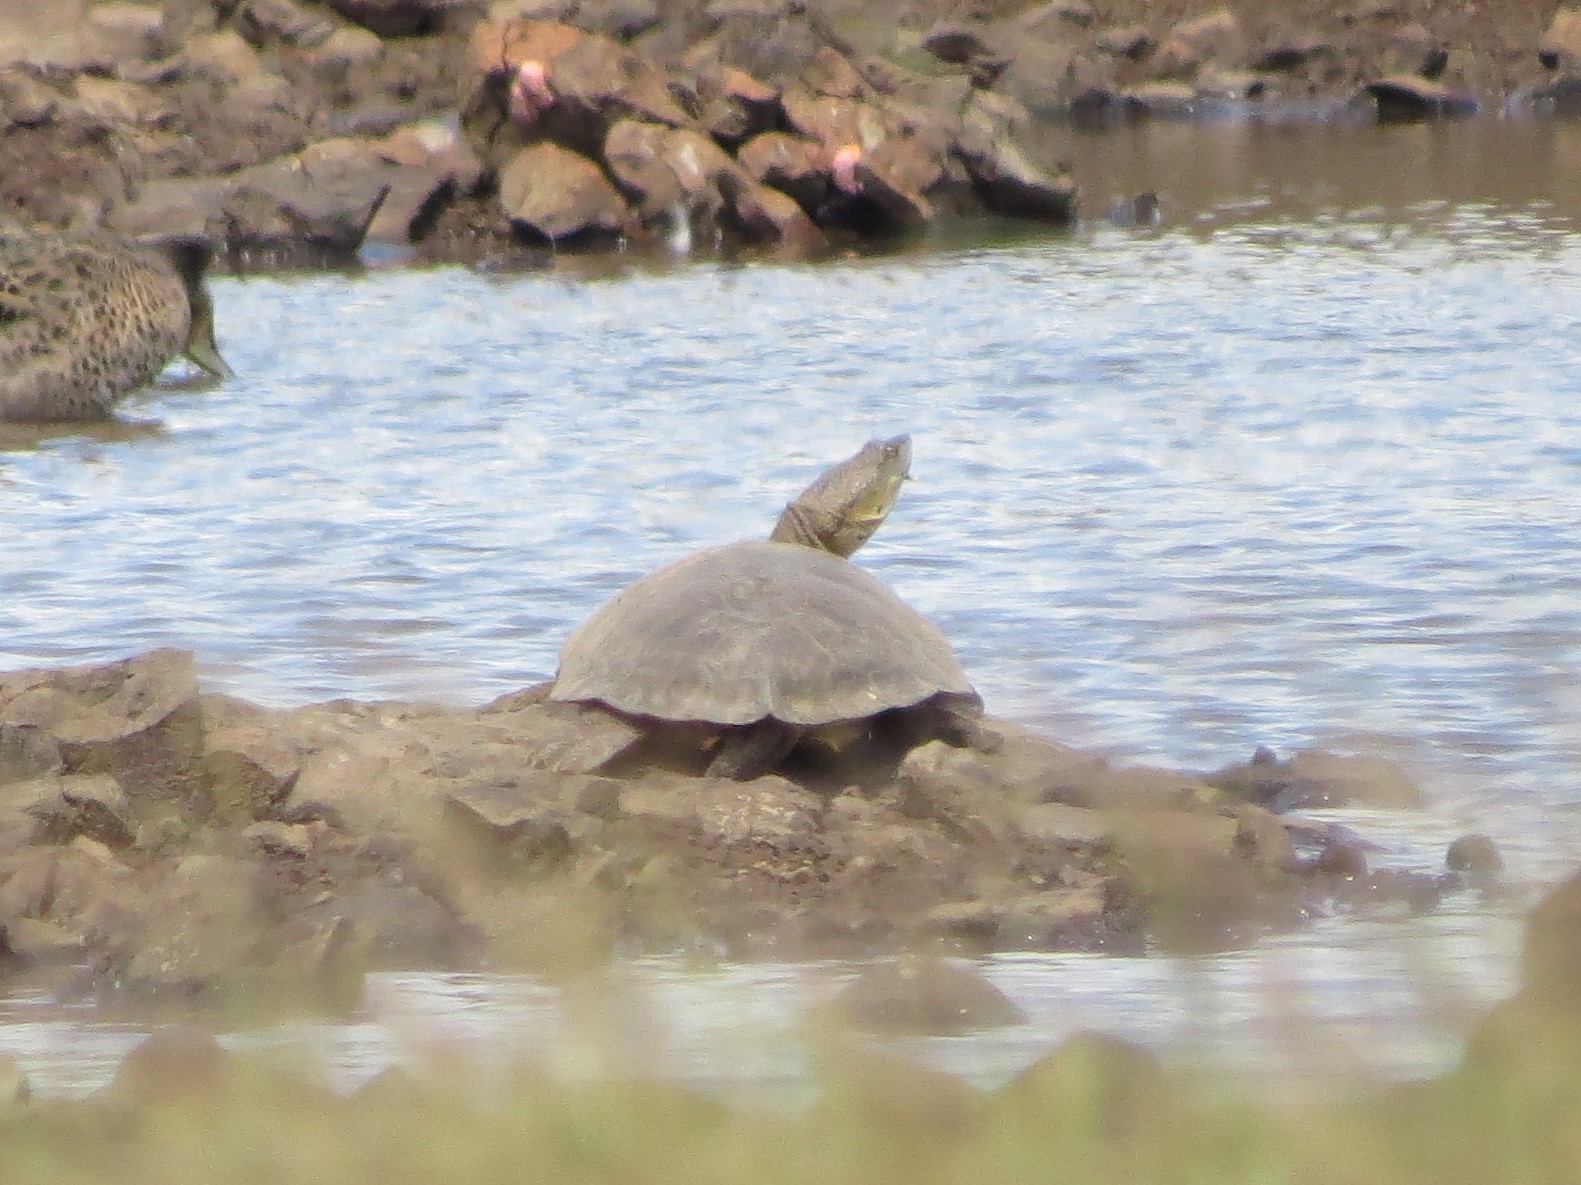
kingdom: Animalia
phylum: Chordata
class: Testudines
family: Chelidae
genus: Phrynops
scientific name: Phrynops hilarii
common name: Side-necked turtle of saint hillaire
